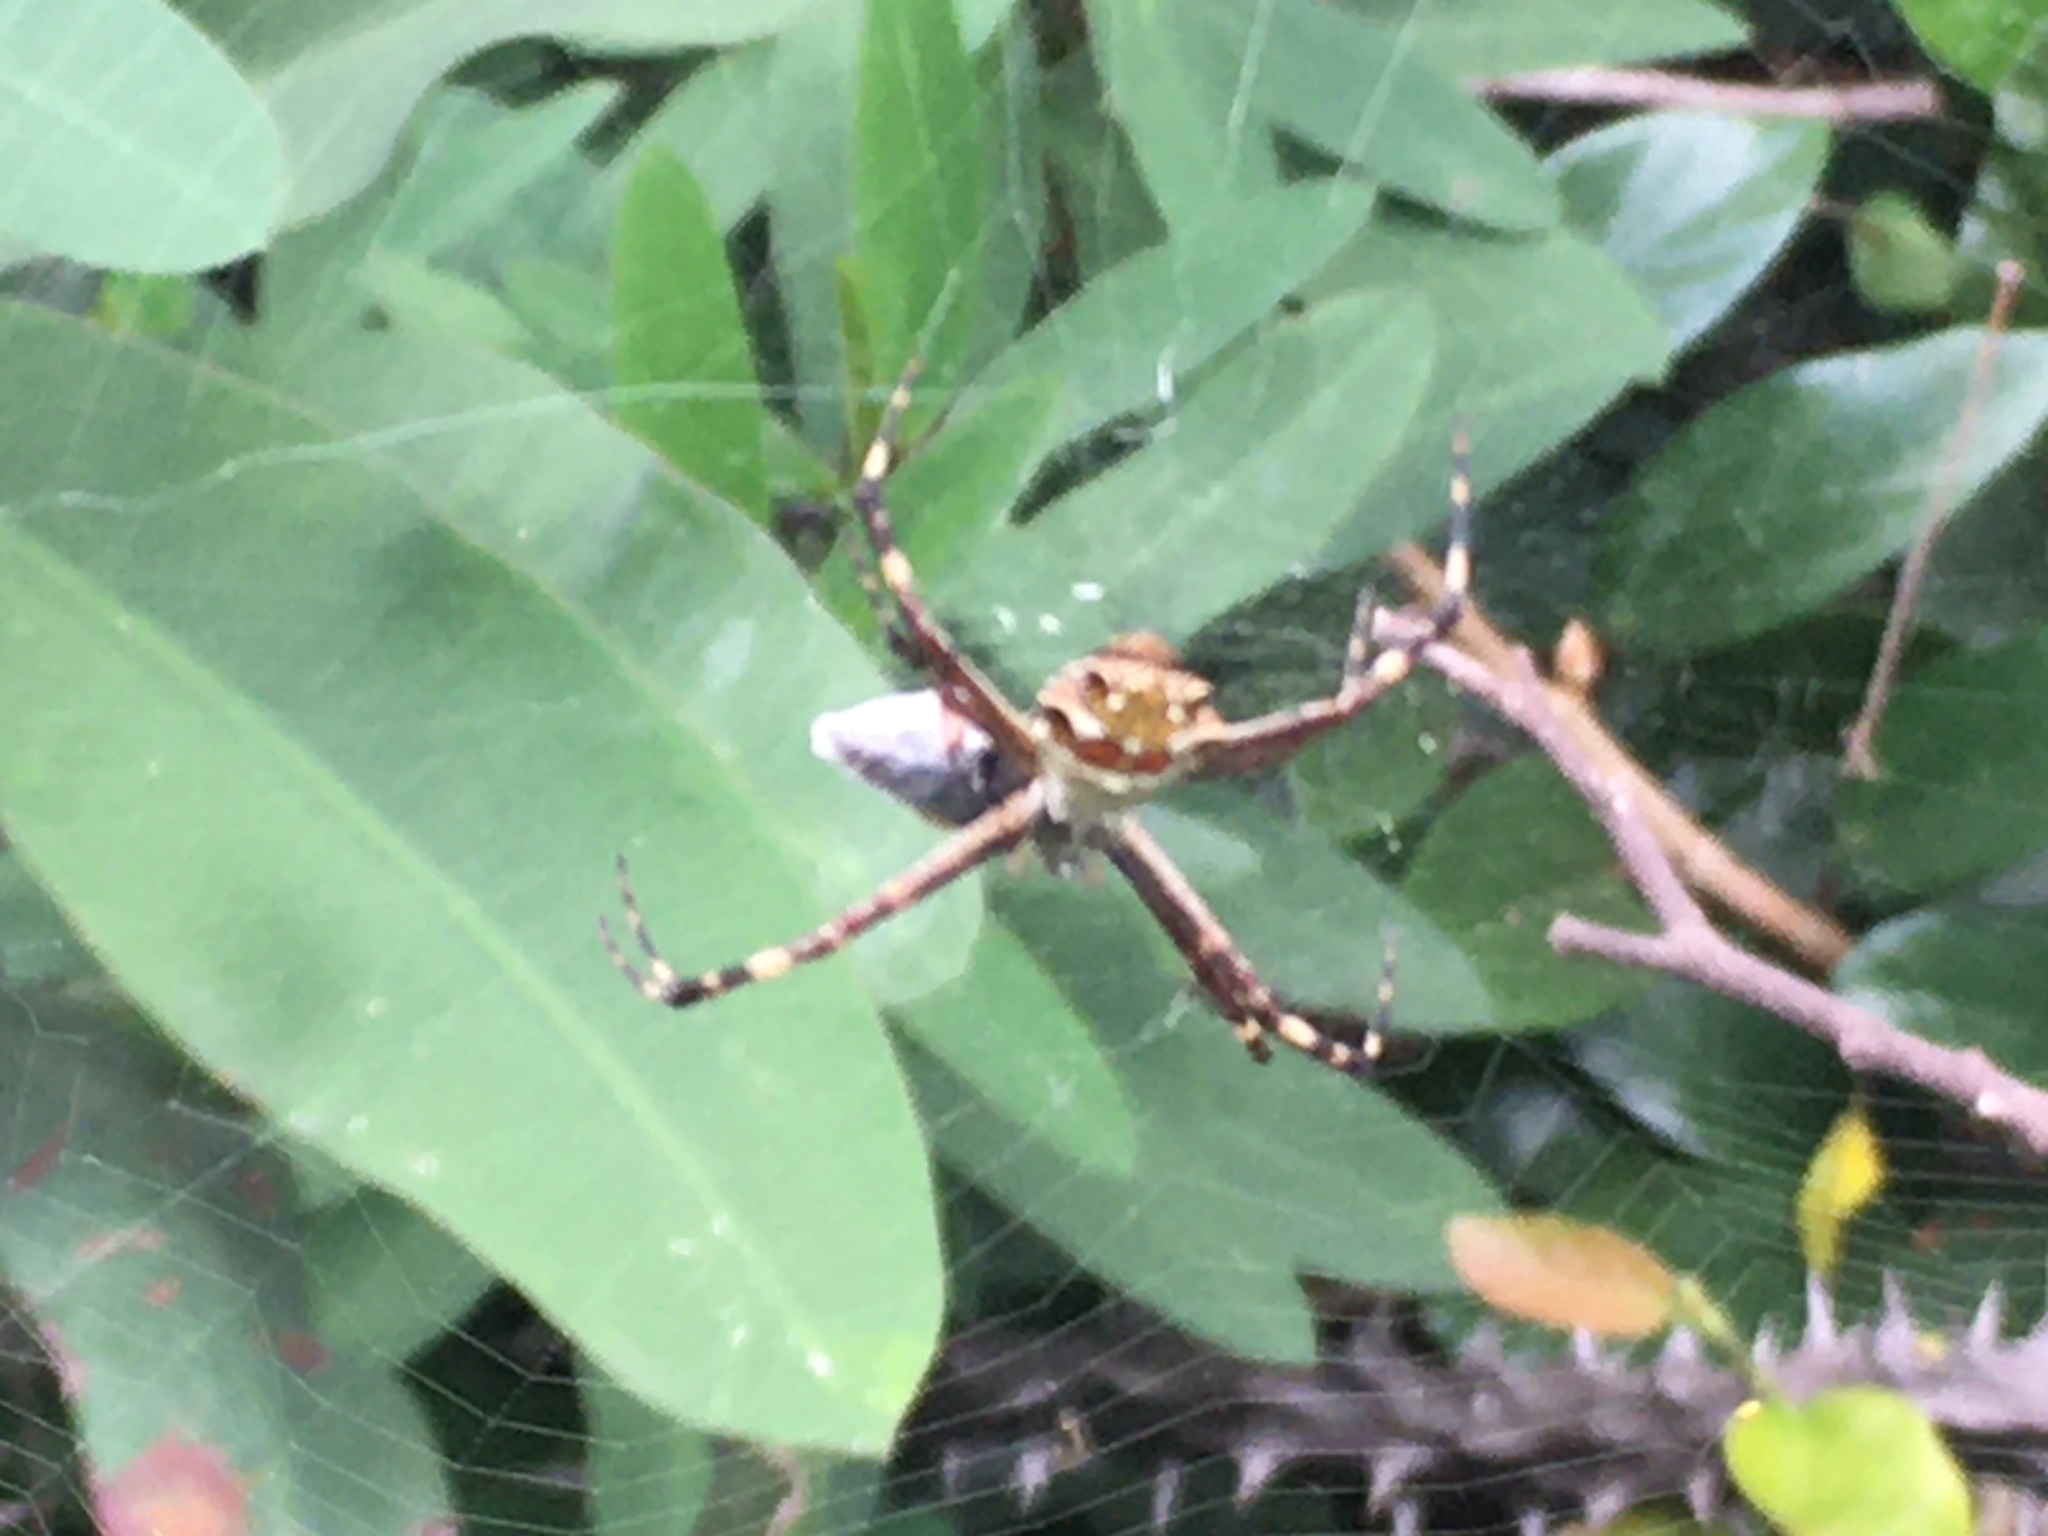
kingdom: Animalia
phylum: Arthropoda
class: Arachnida
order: Araneae
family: Araneidae
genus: Argiope
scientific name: Argiope argentata
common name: Orb weavers
